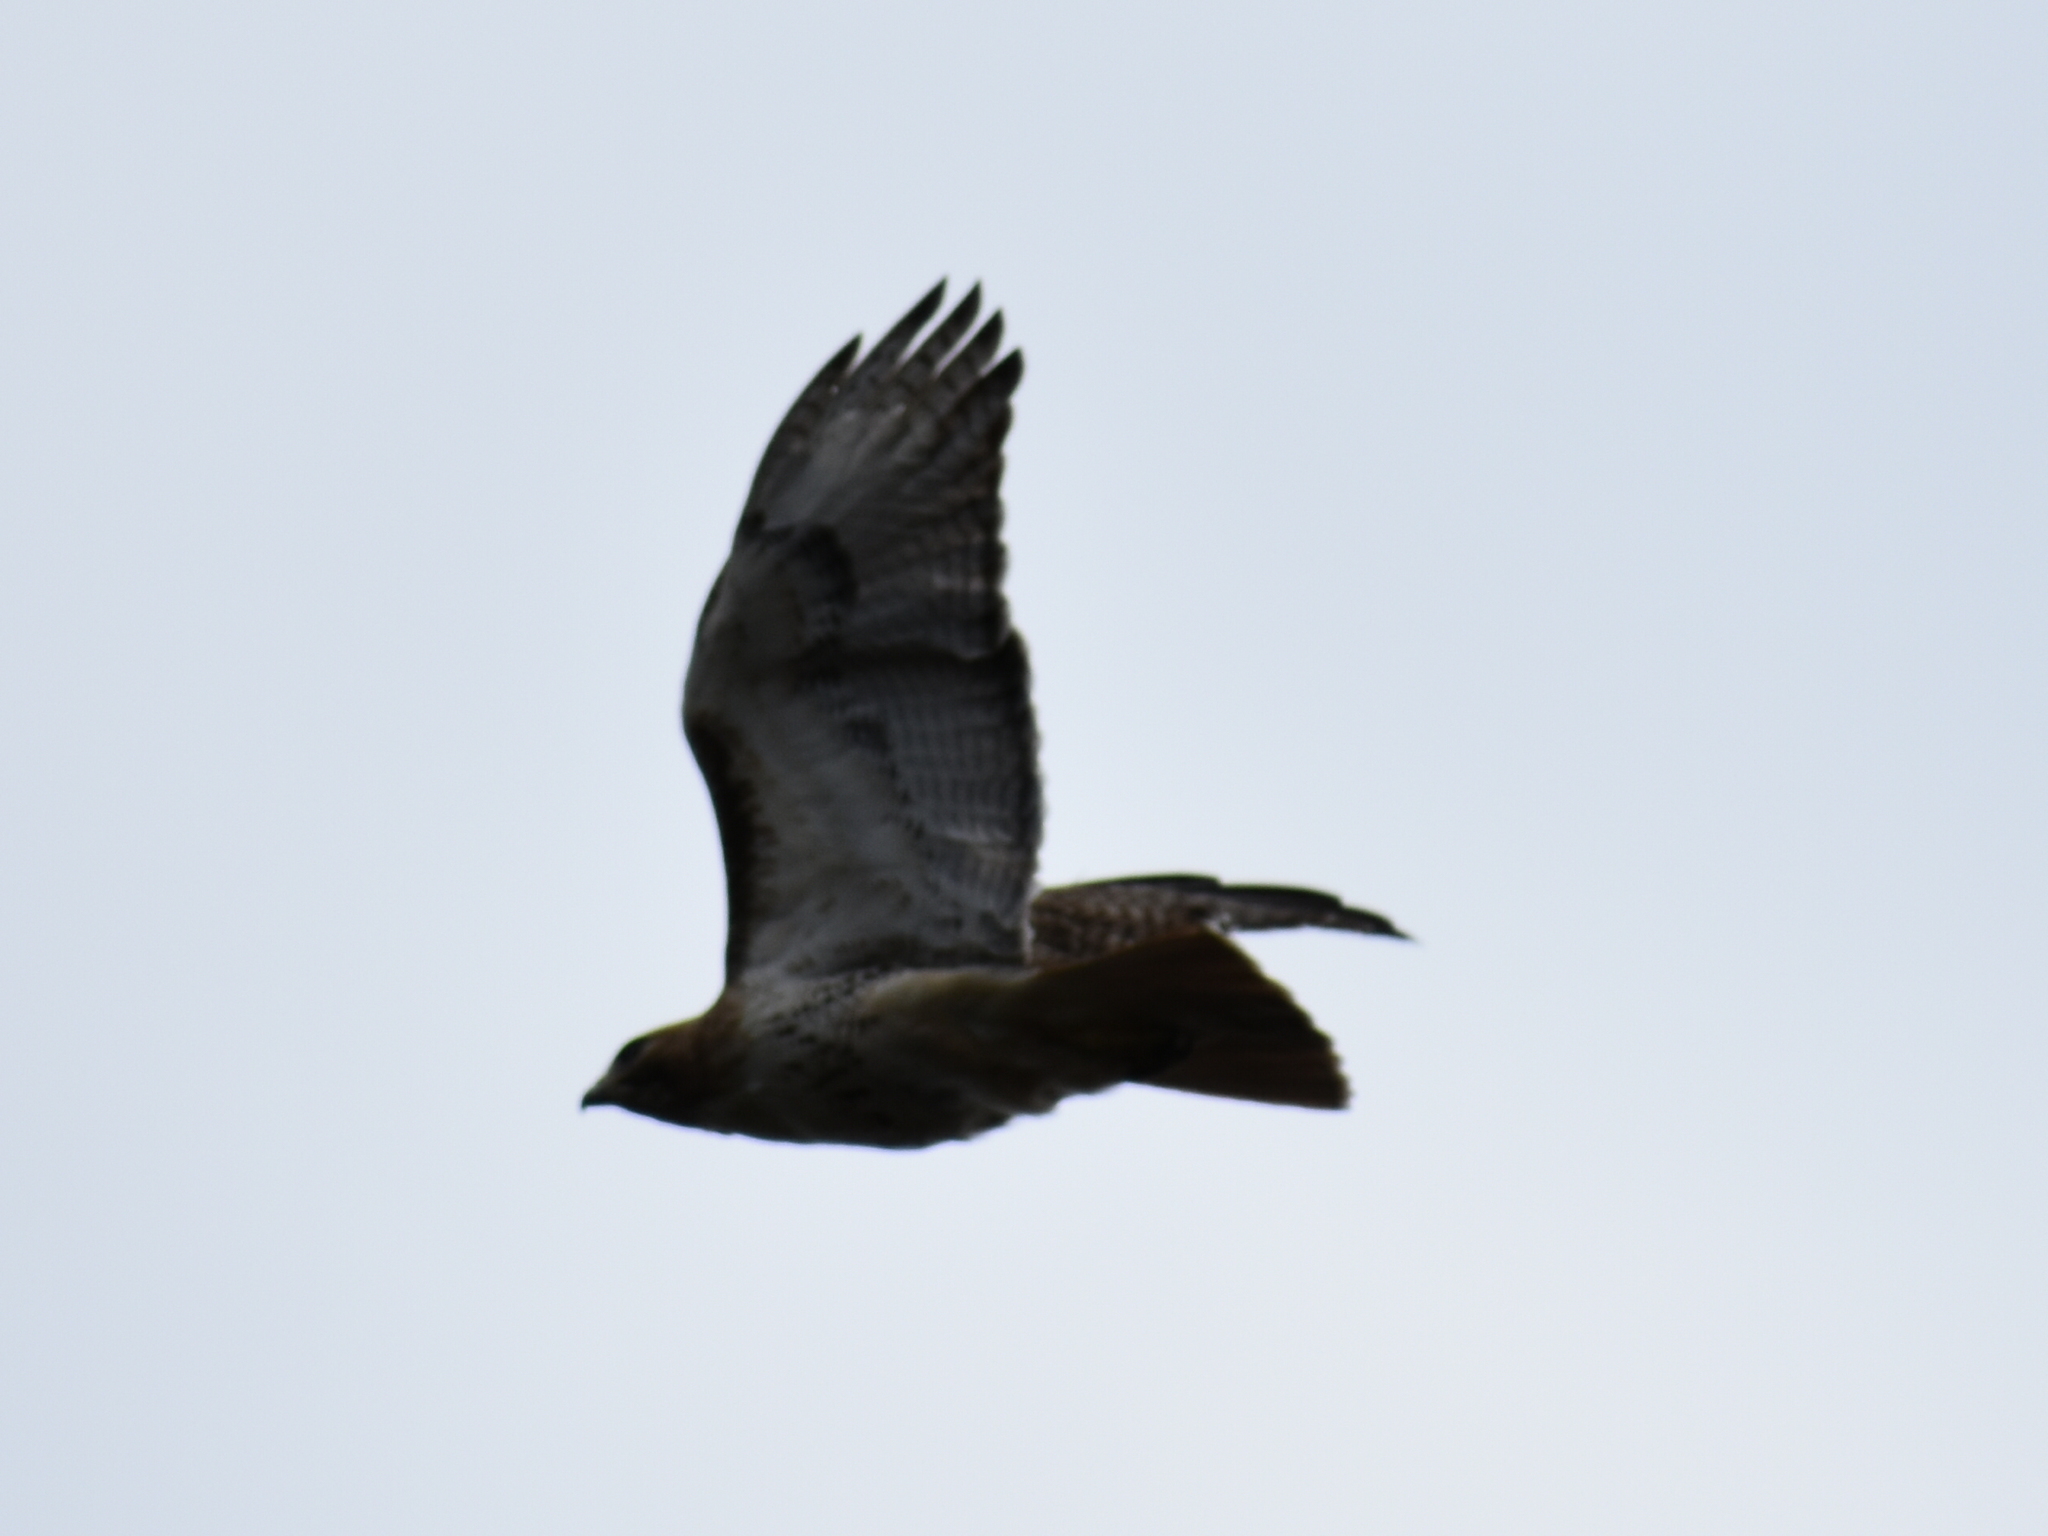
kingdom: Animalia
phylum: Chordata
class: Aves
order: Accipitriformes
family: Accipitridae
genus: Buteo
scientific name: Buteo jamaicensis
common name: Red-tailed hawk
